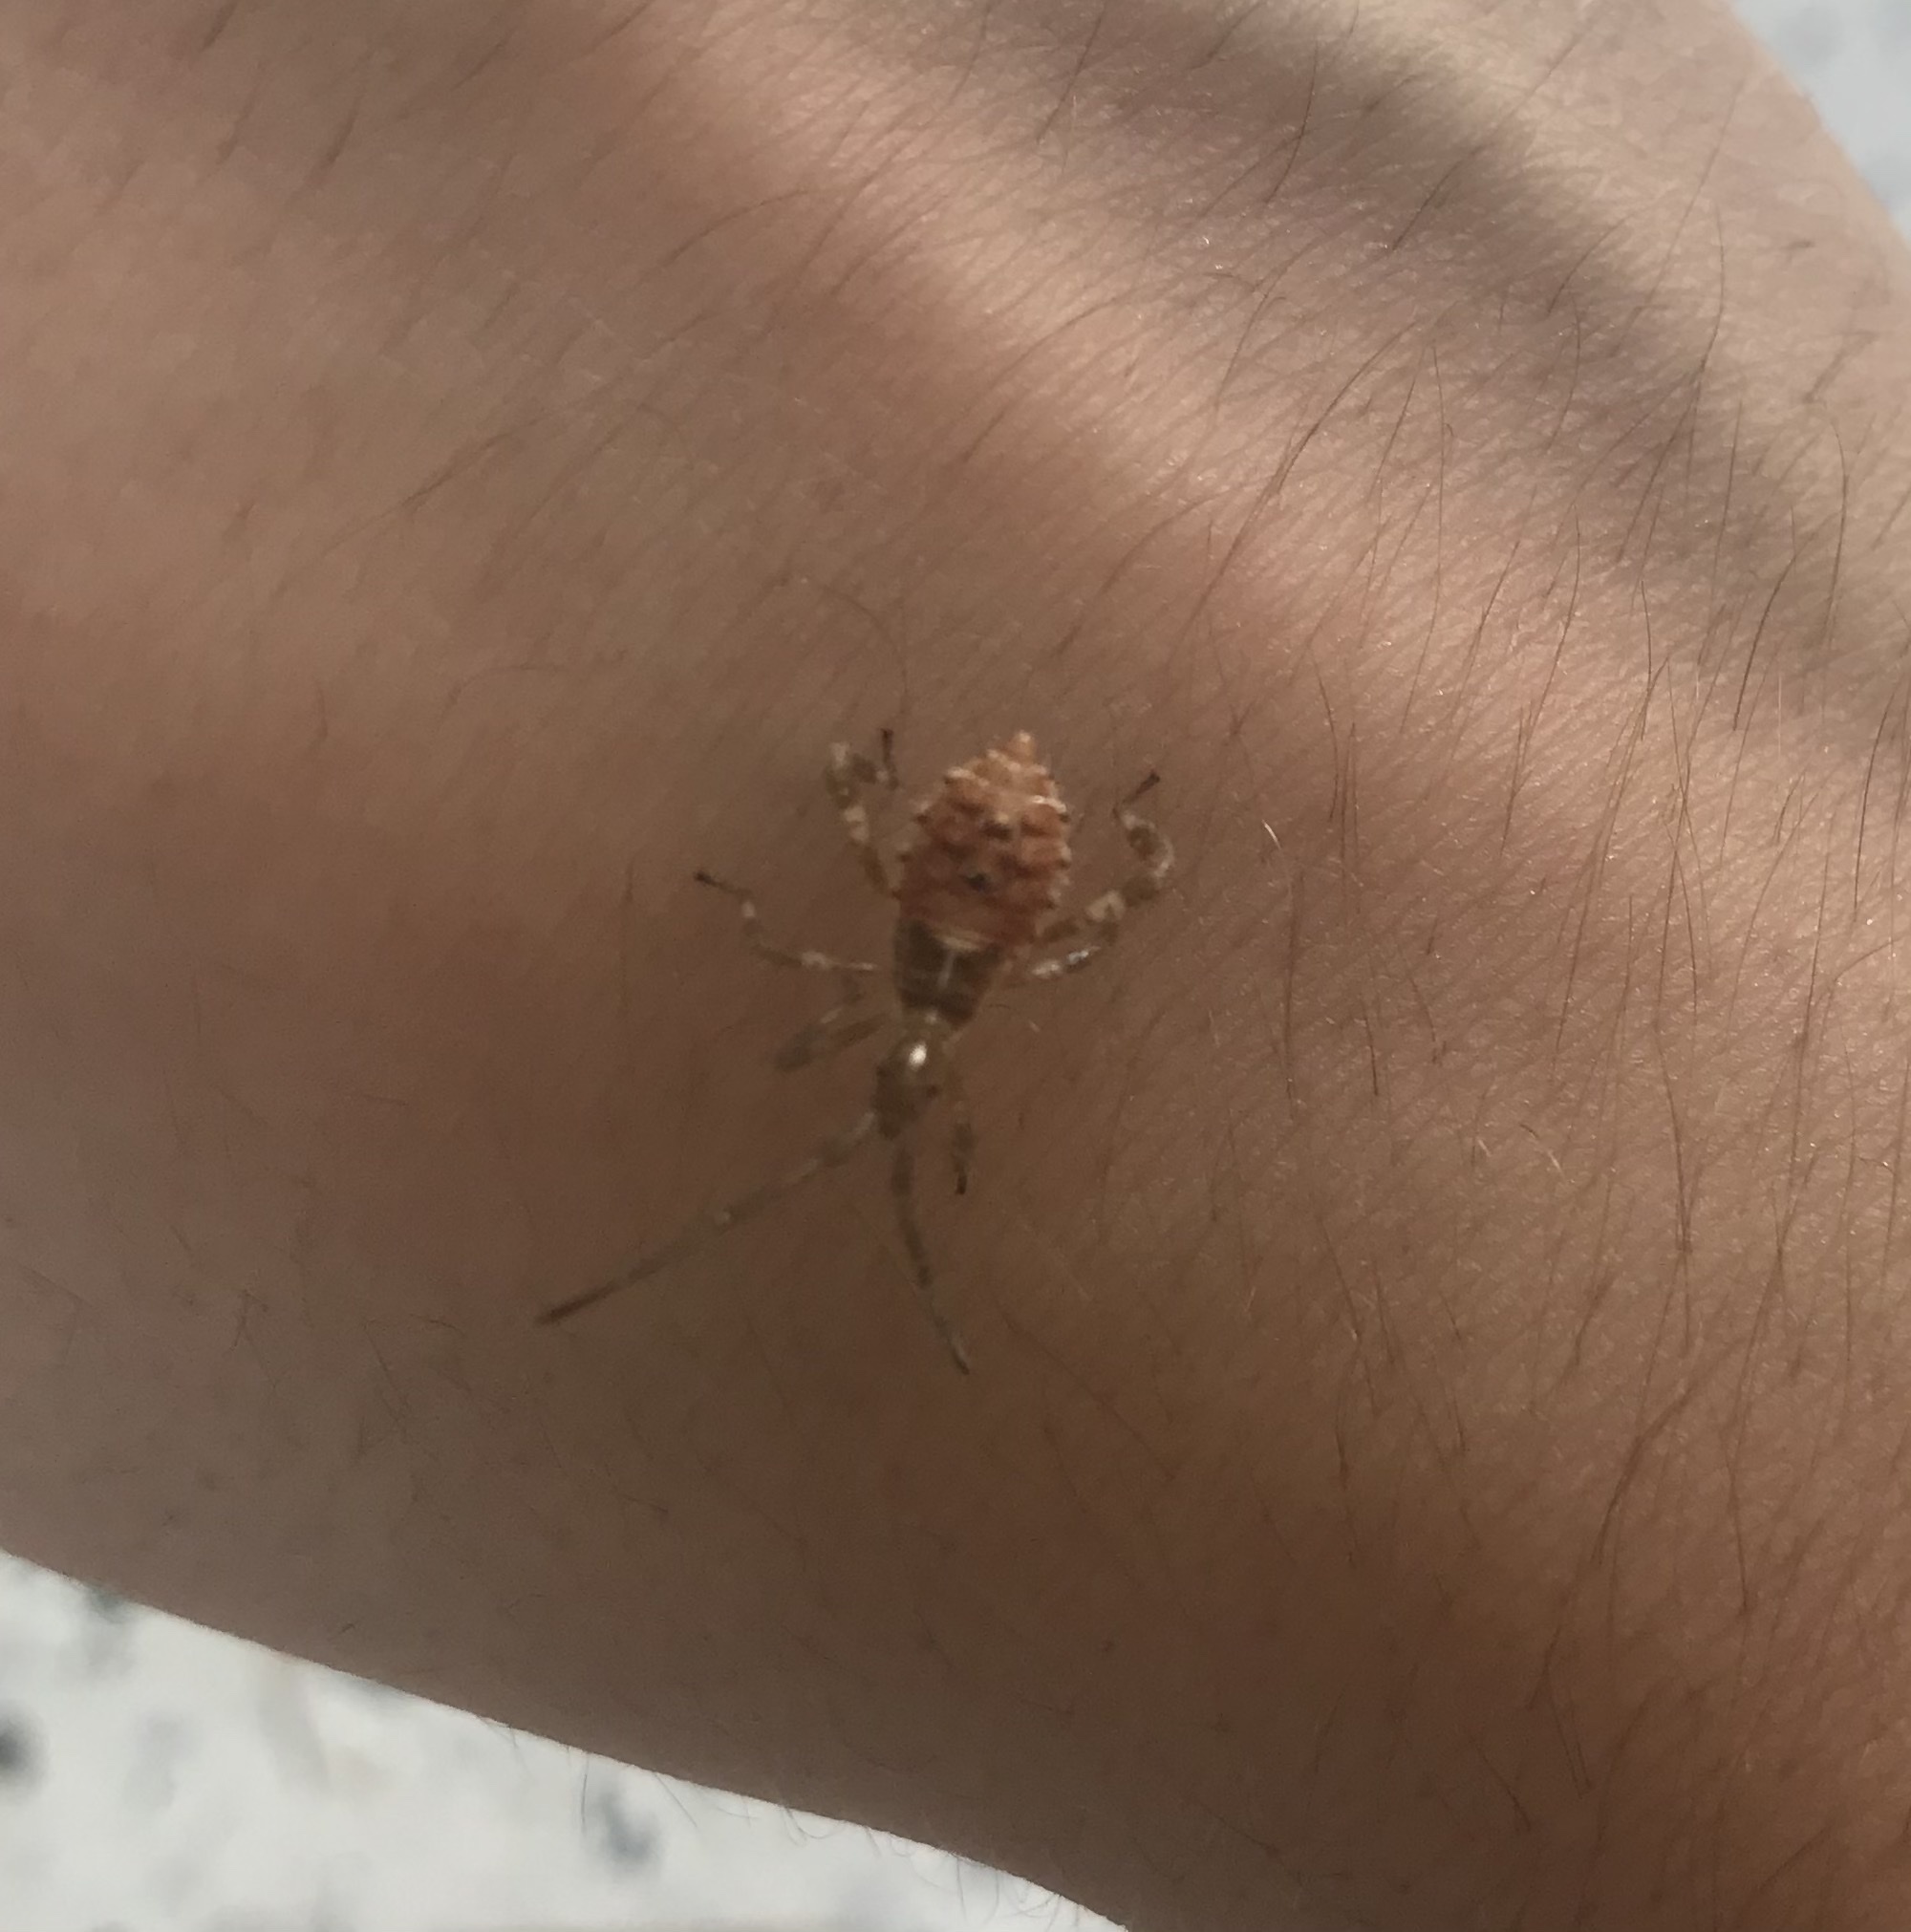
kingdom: Animalia
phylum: Arthropoda
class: Insecta
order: Hemiptera
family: Coreidae
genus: Leptoglossus
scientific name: Leptoglossus occidentalis
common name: Western conifer-seed bug
